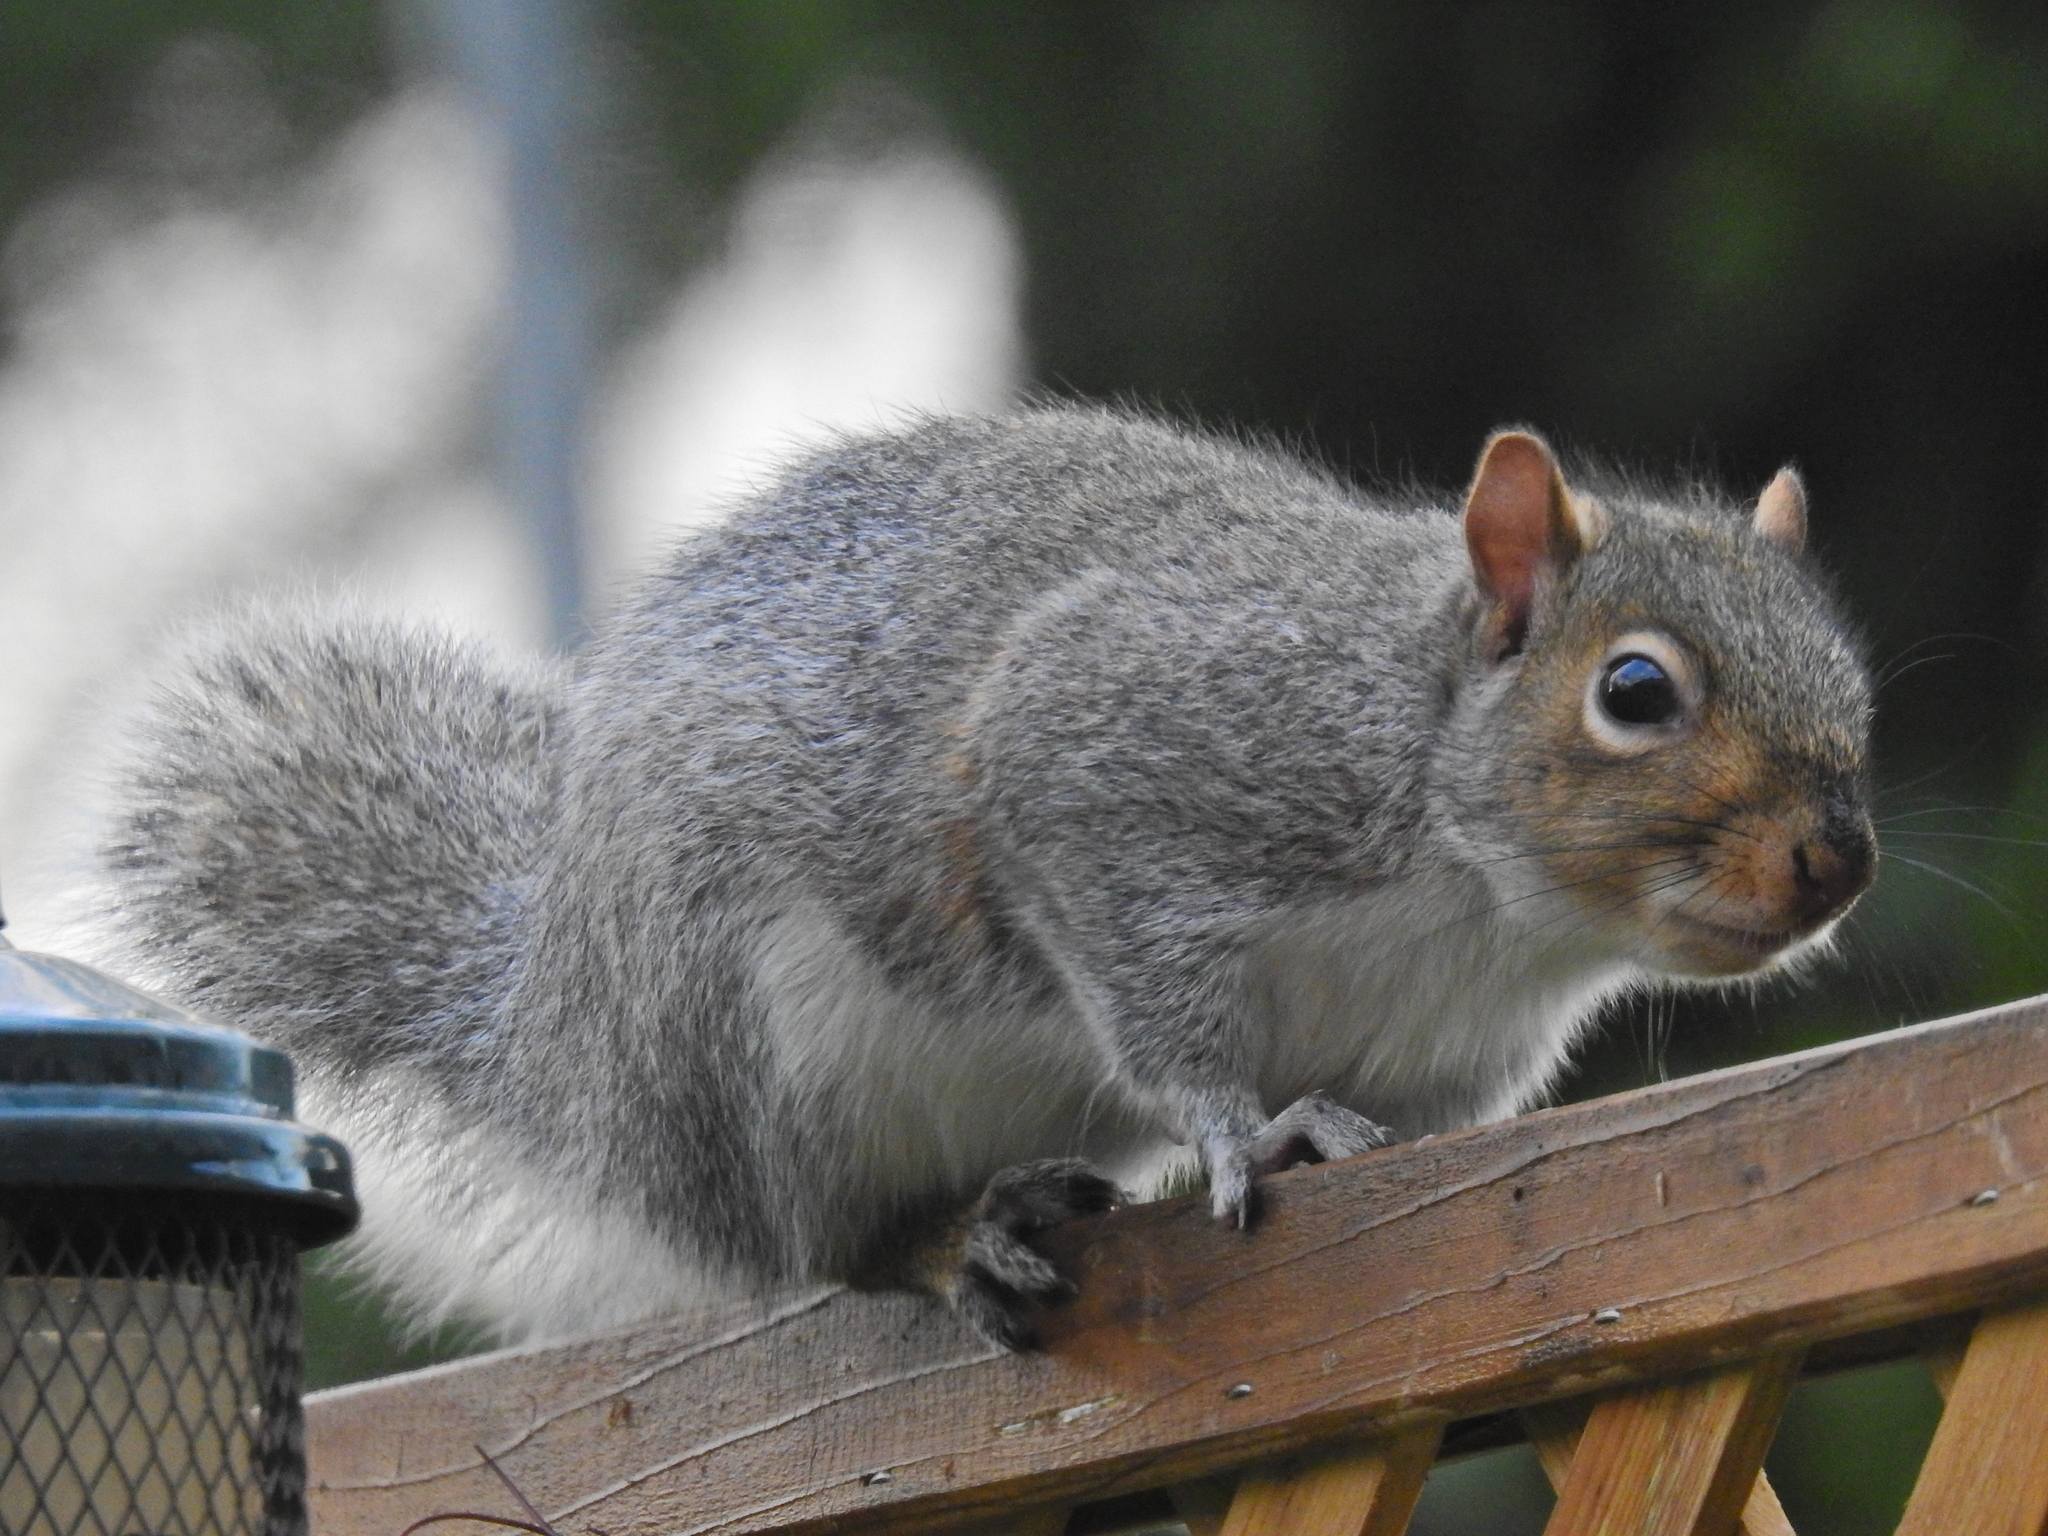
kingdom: Animalia
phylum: Chordata
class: Mammalia
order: Rodentia
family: Sciuridae
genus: Sciurus
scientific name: Sciurus carolinensis
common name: Eastern gray squirrel
